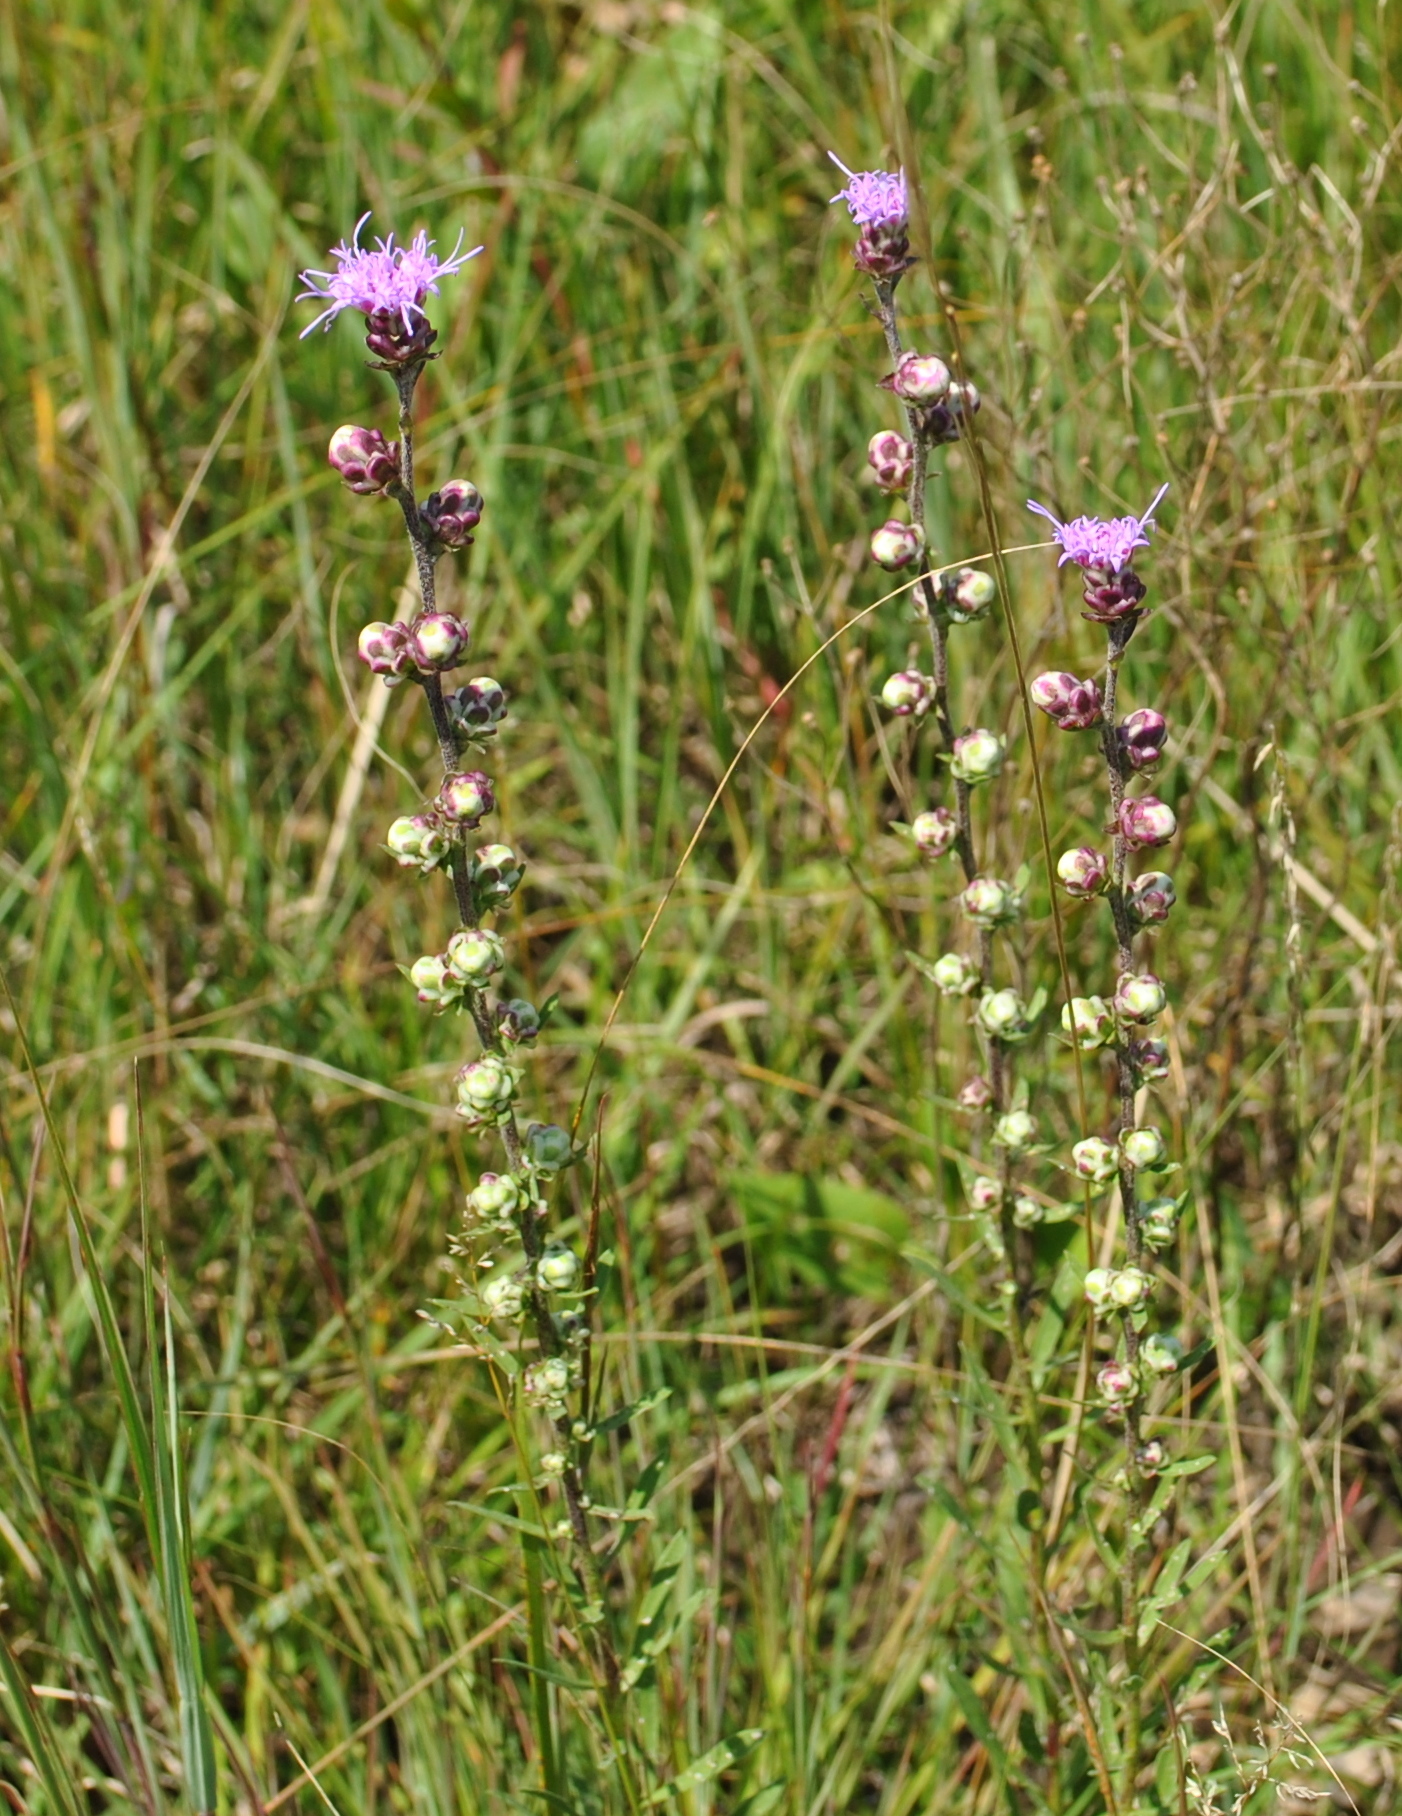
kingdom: Plantae
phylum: Tracheophyta
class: Magnoliopsida
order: Asterales
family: Asteraceae
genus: Liatris
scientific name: Liatris aspera
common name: Lacerate blazing-star
